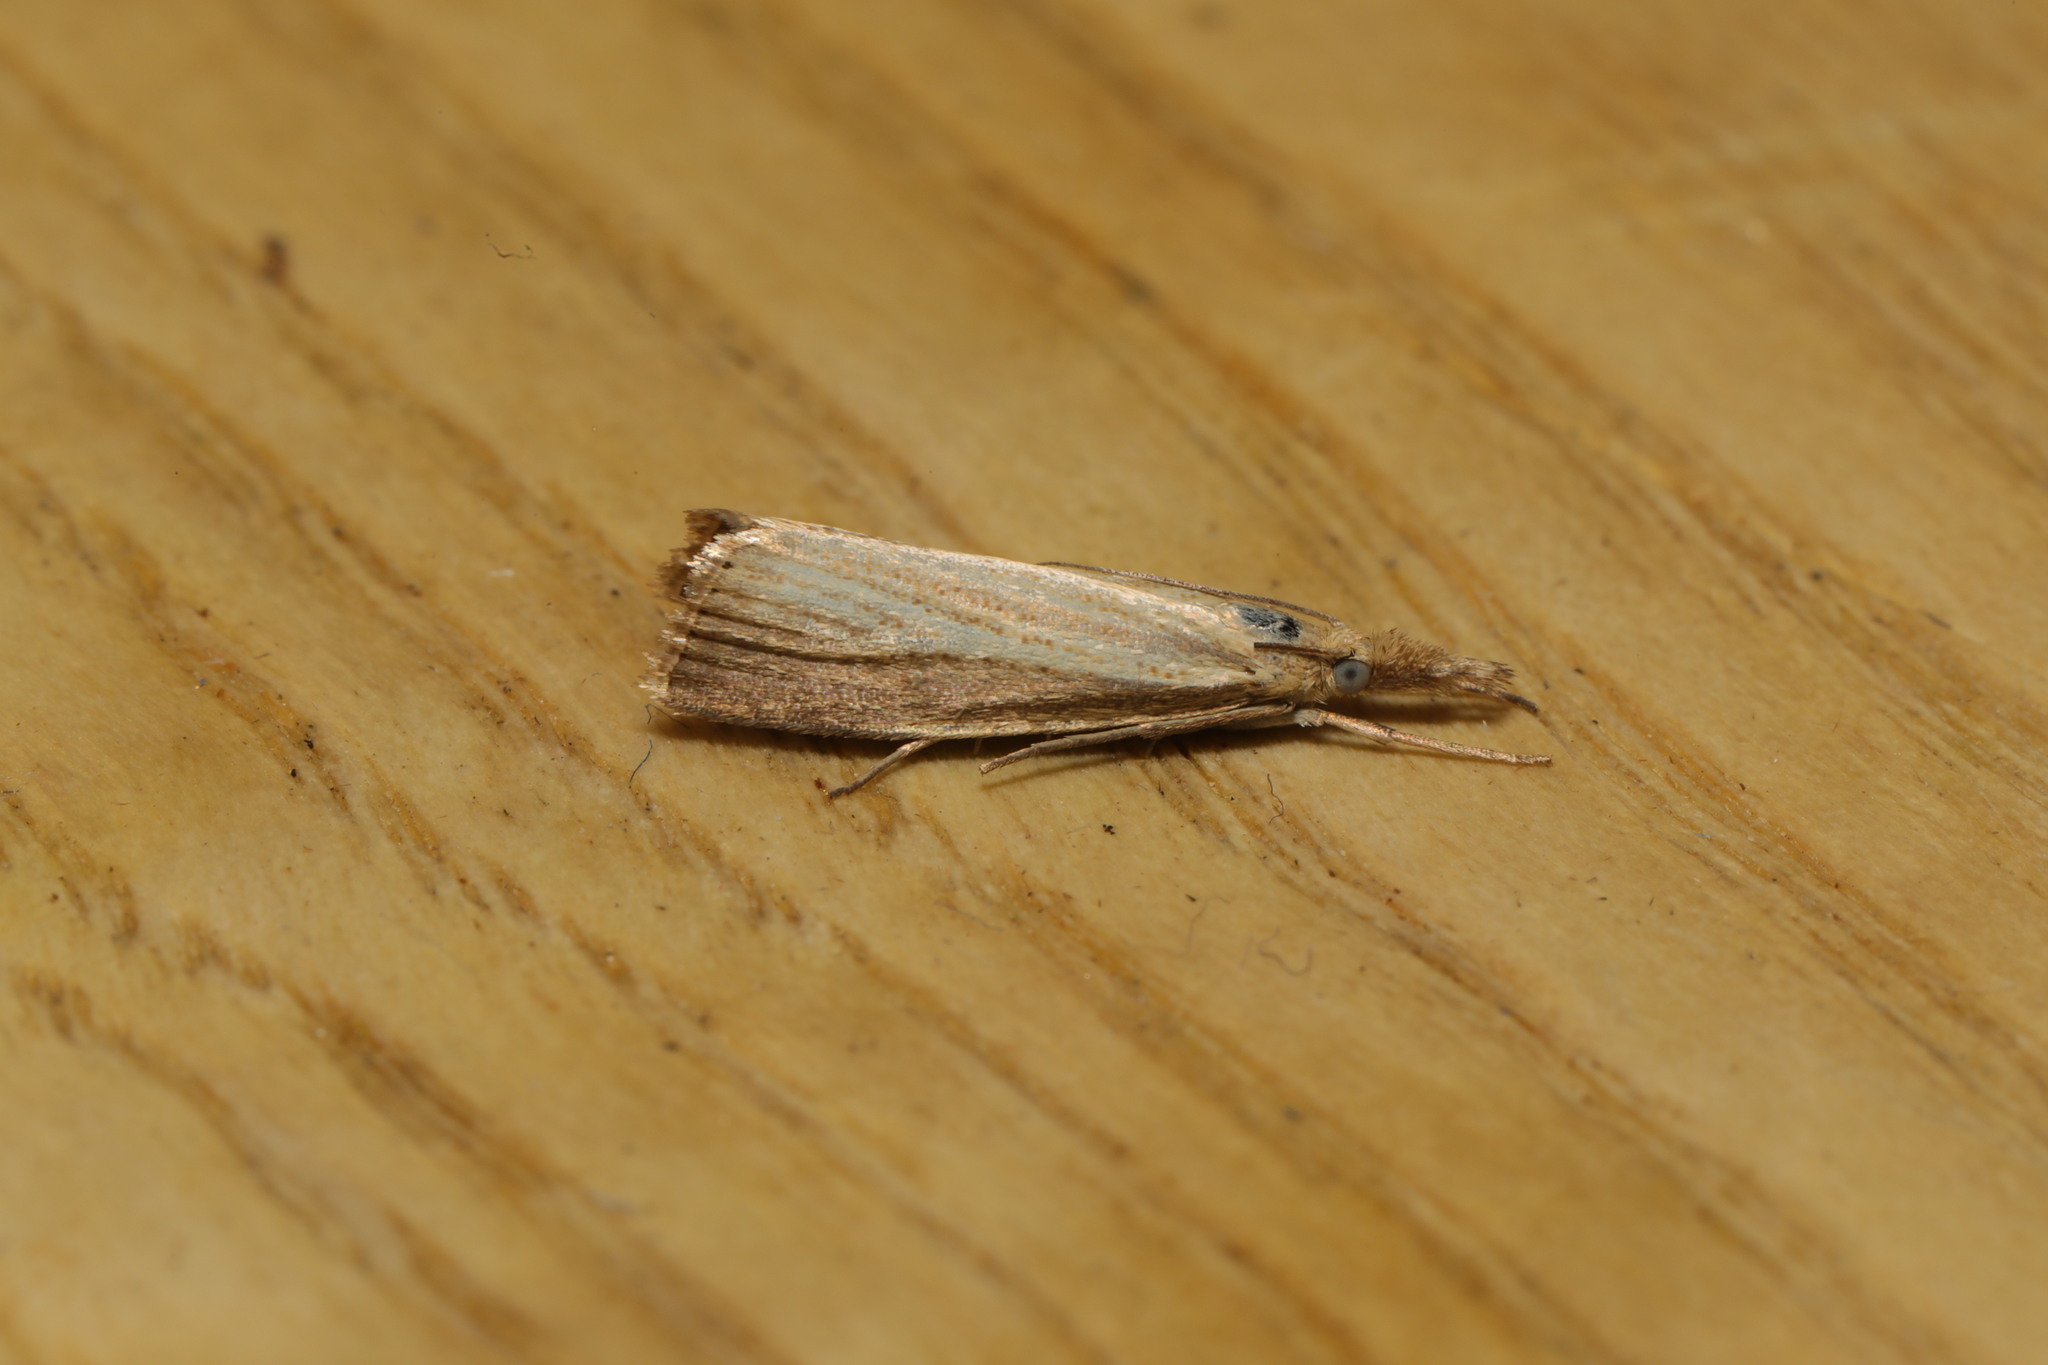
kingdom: Animalia
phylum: Arthropoda
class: Insecta
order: Lepidoptera
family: Crambidae
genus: Agriphila
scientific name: Agriphila straminella
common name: Straw grass-veneer
